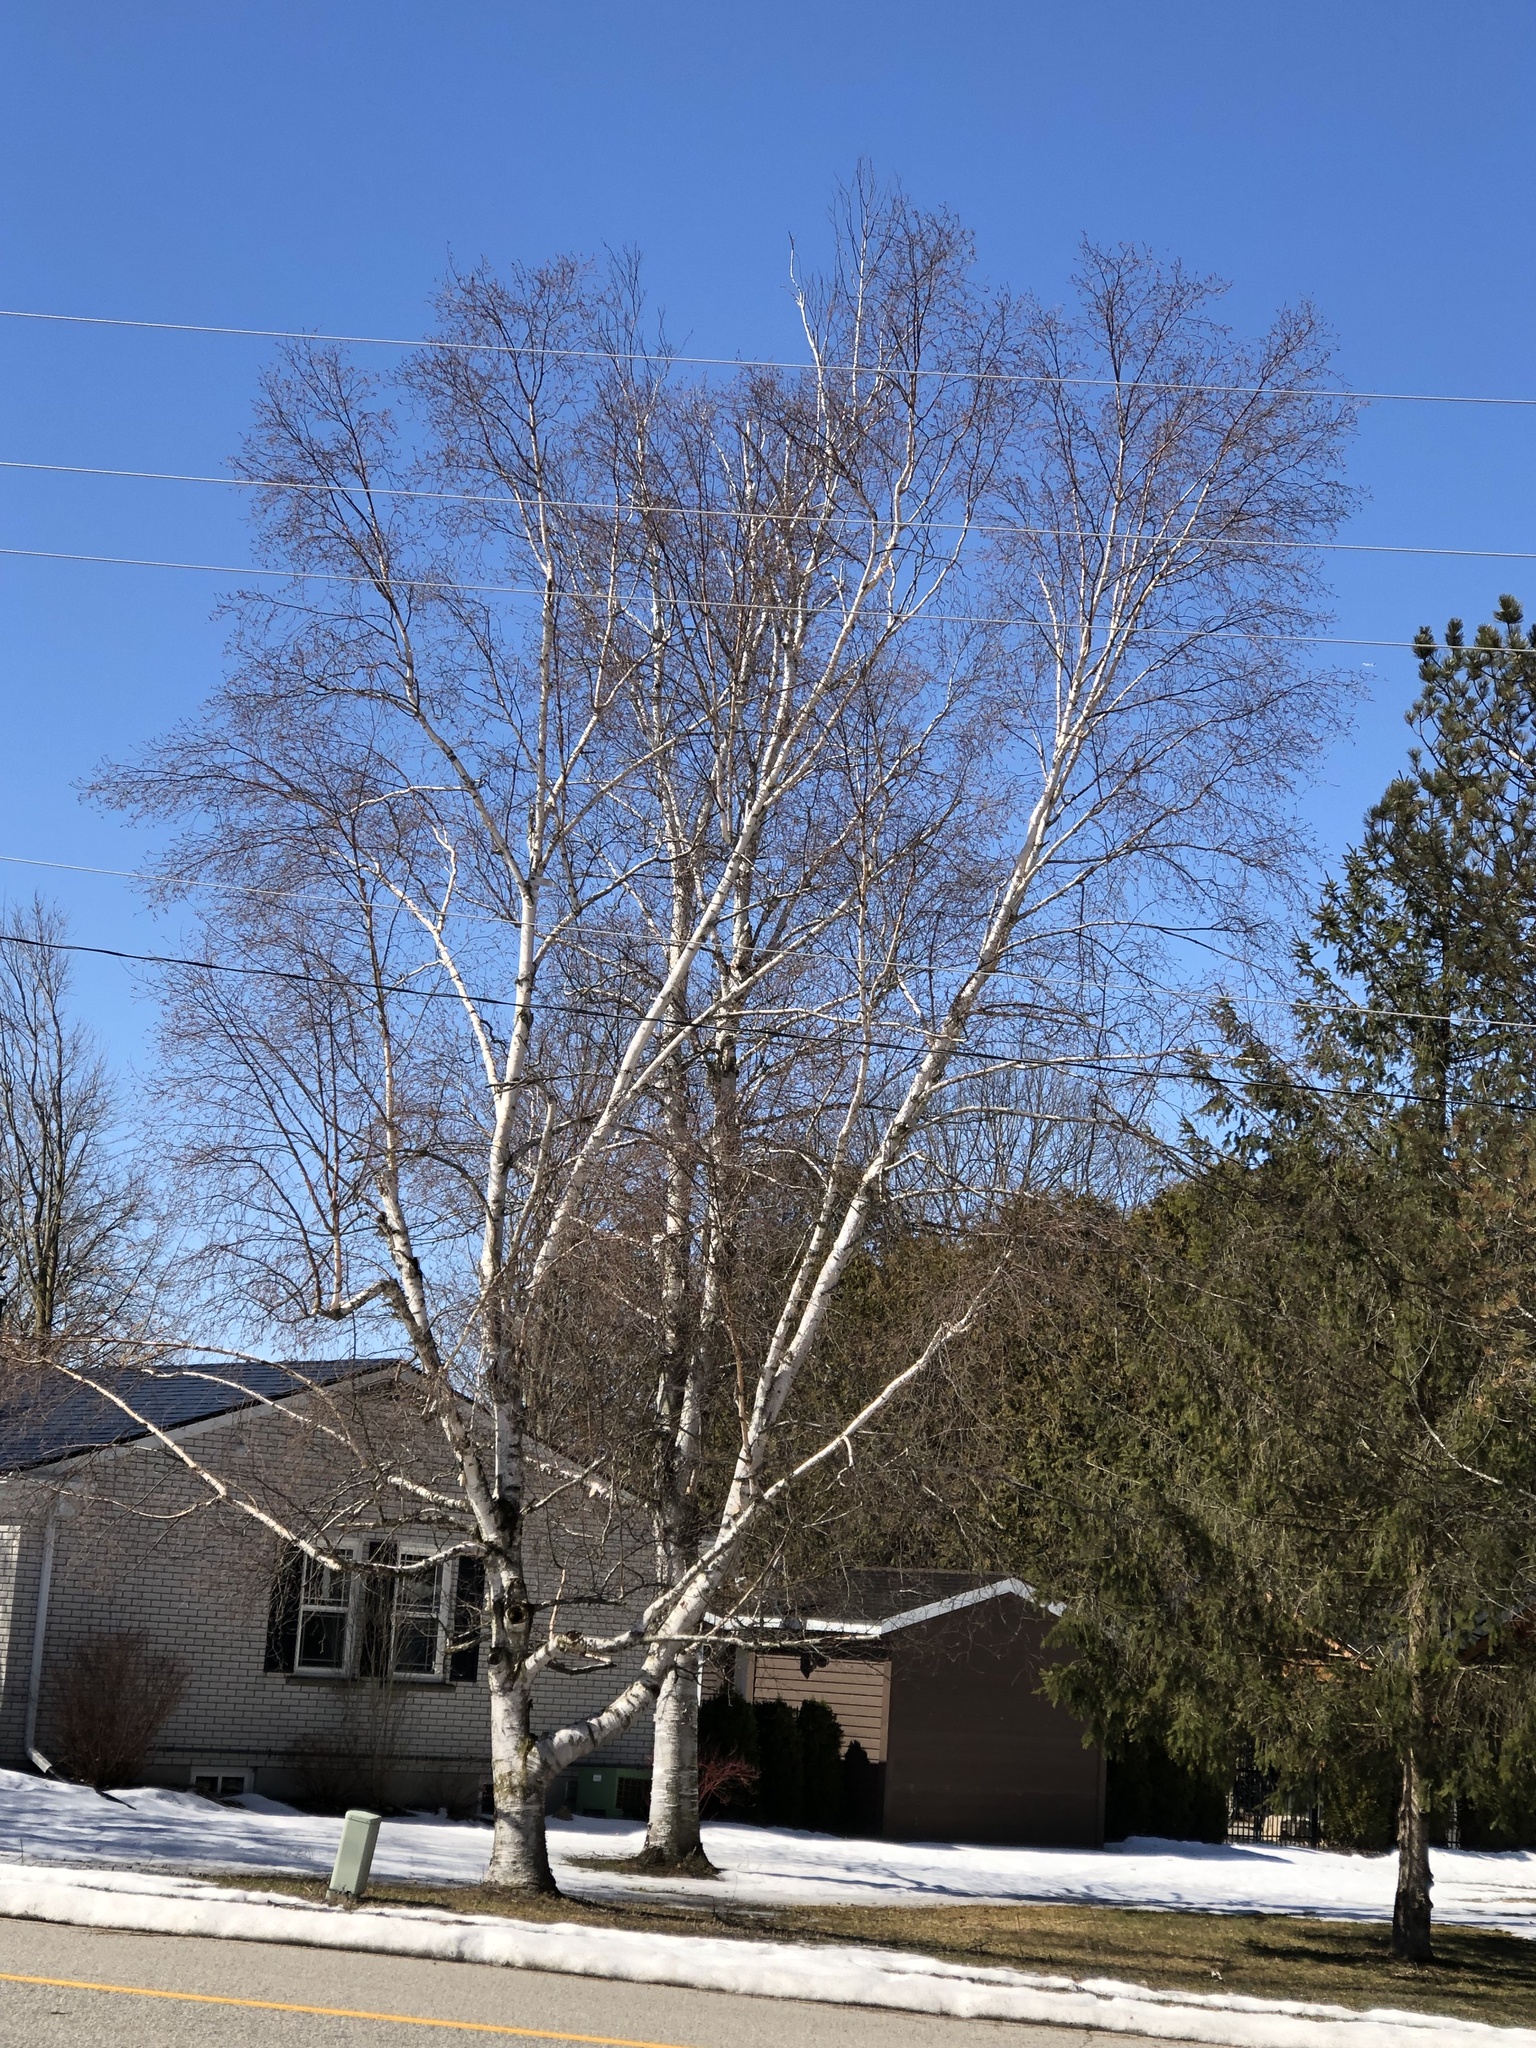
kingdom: Plantae
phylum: Tracheophyta
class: Magnoliopsida
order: Fagales
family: Betulaceae
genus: Betula
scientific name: Betula papyrifera
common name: Paper birch
